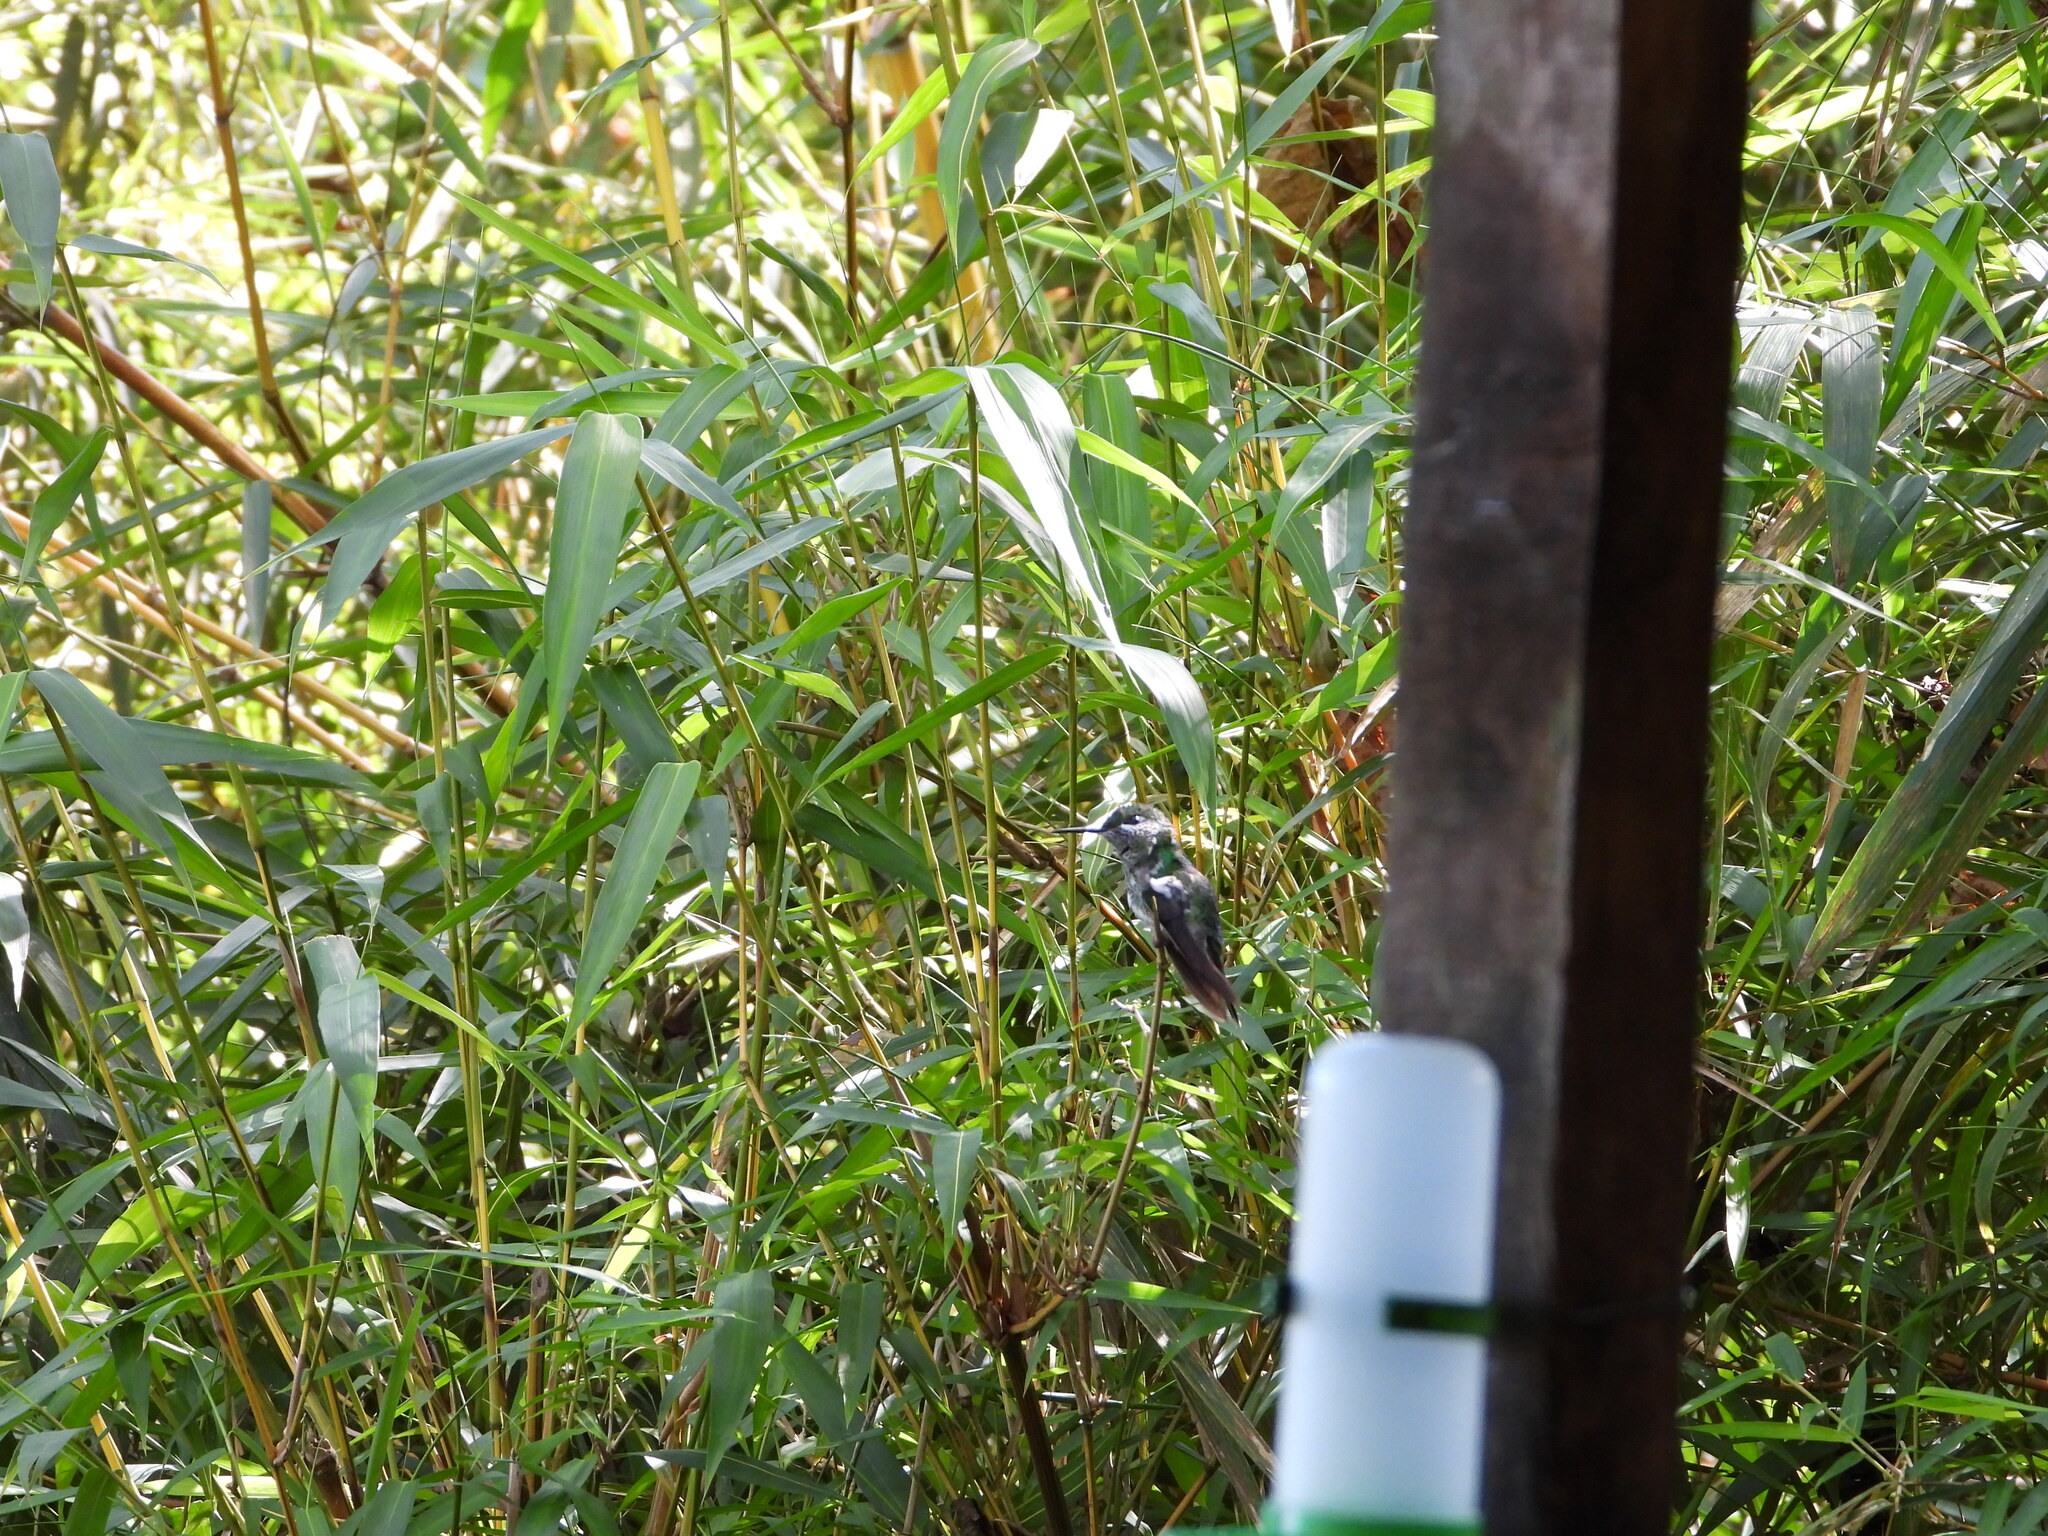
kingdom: Animalia
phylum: Chordata
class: Aves
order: Apodiformes
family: Trochilidae
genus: Klais
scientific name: Klais guimeti
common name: Violet-headed hummingbird
